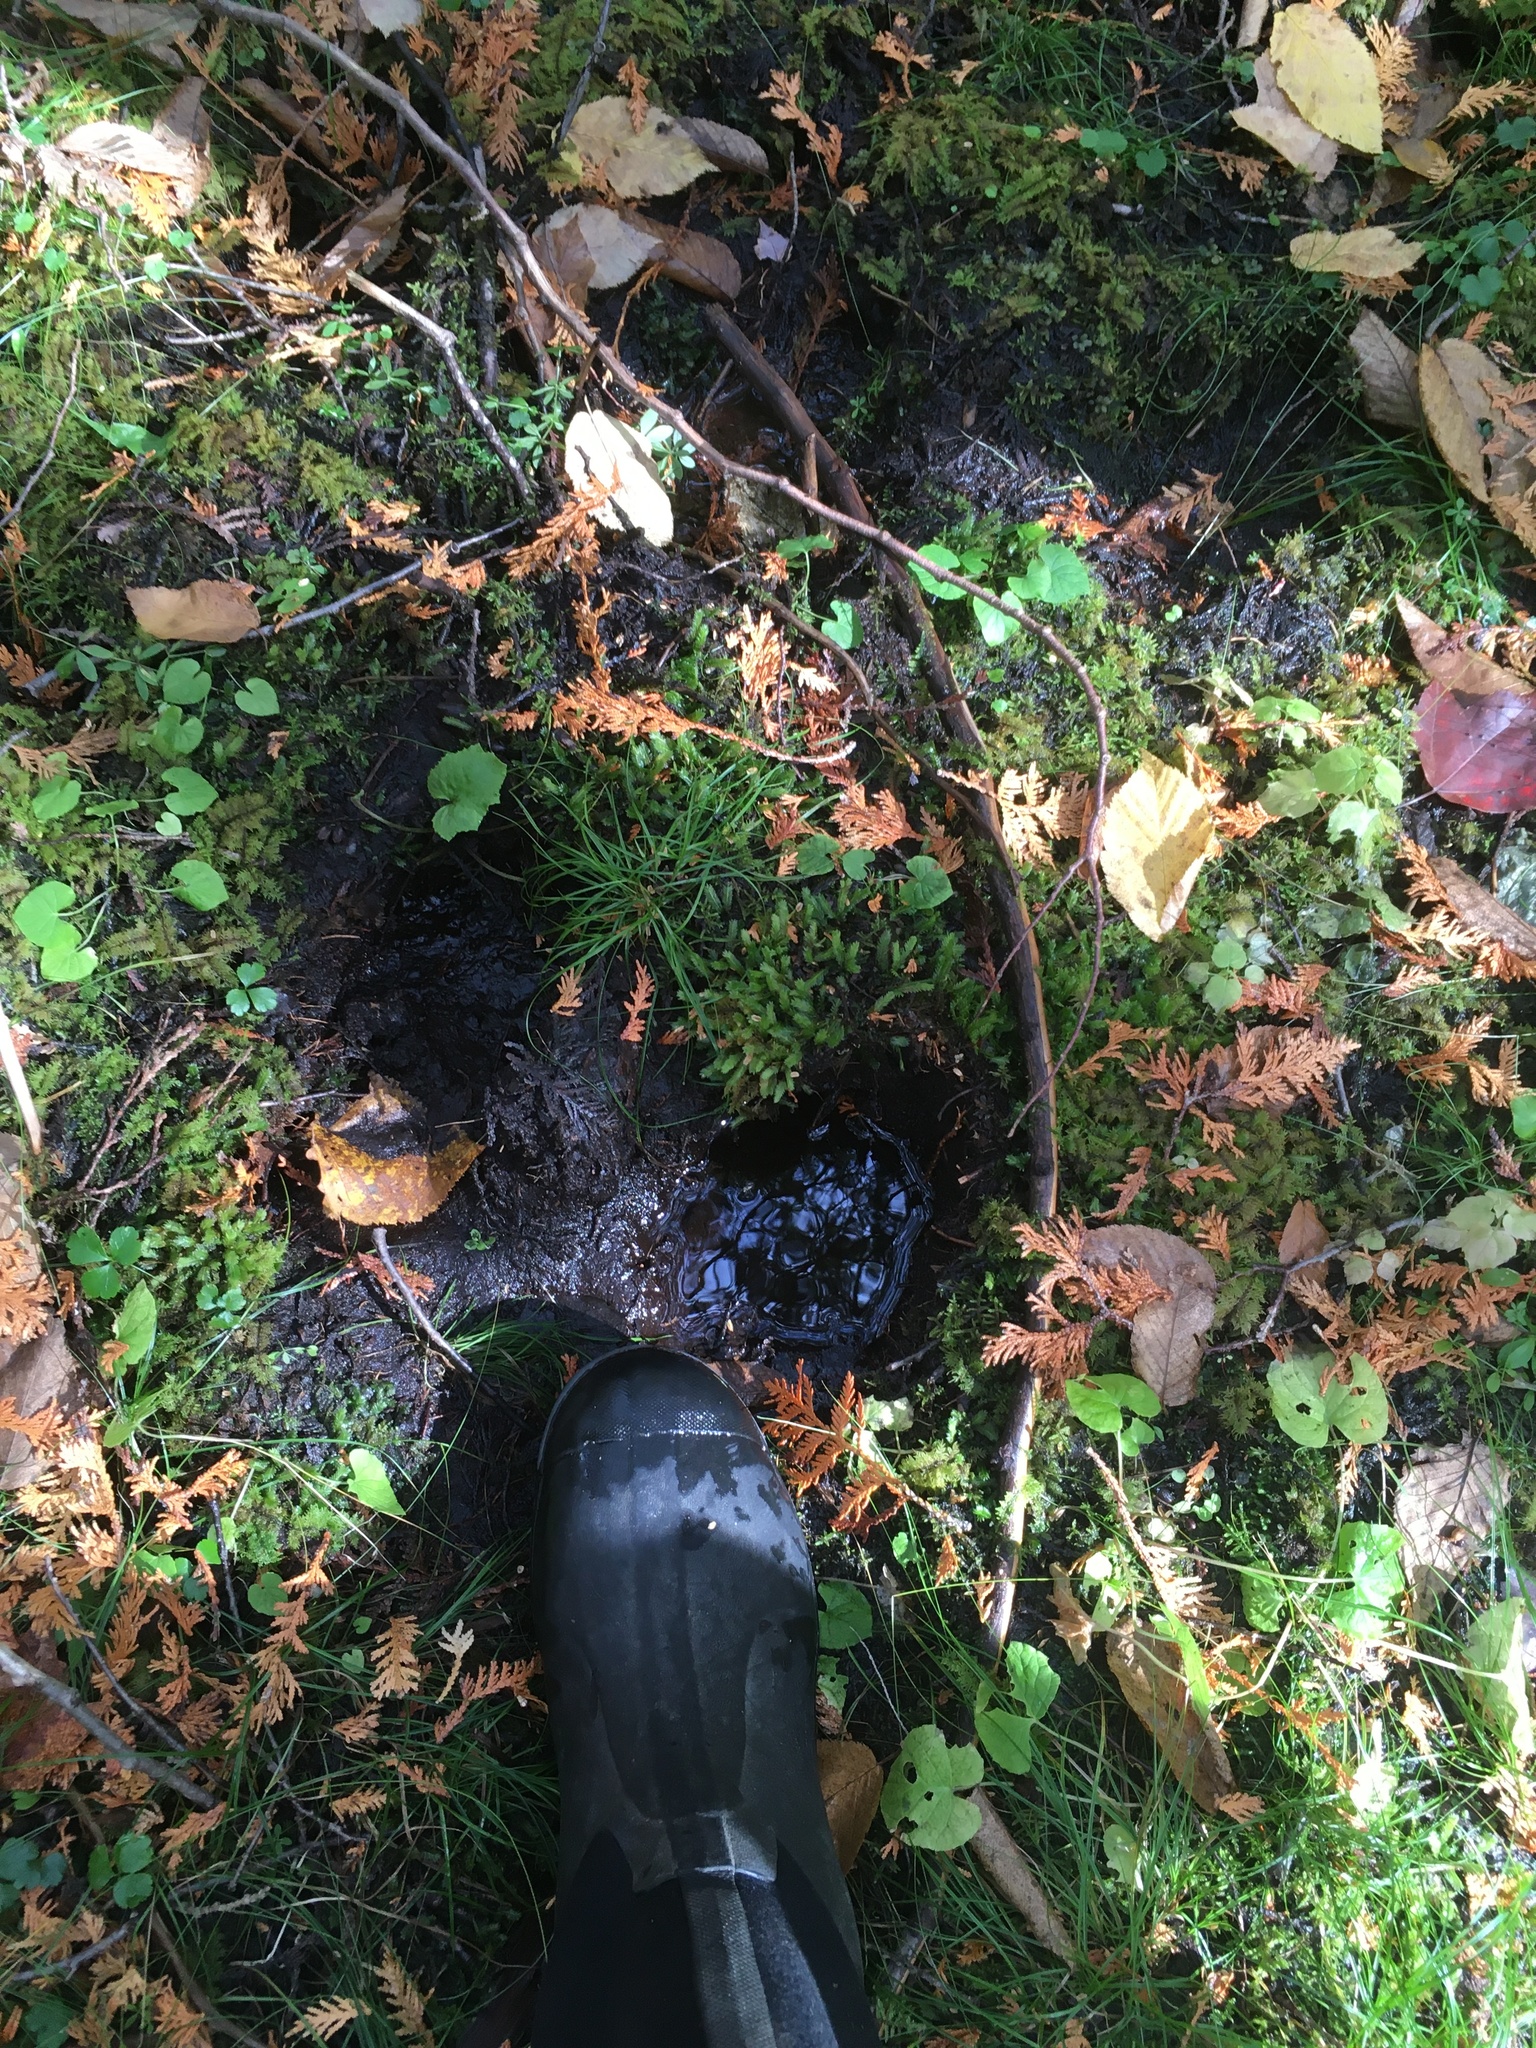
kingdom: Animalia
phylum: Chordata
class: Mammalia
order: Artiodactyla
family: Cervidae
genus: Alces
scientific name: Alces alces
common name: Moose
